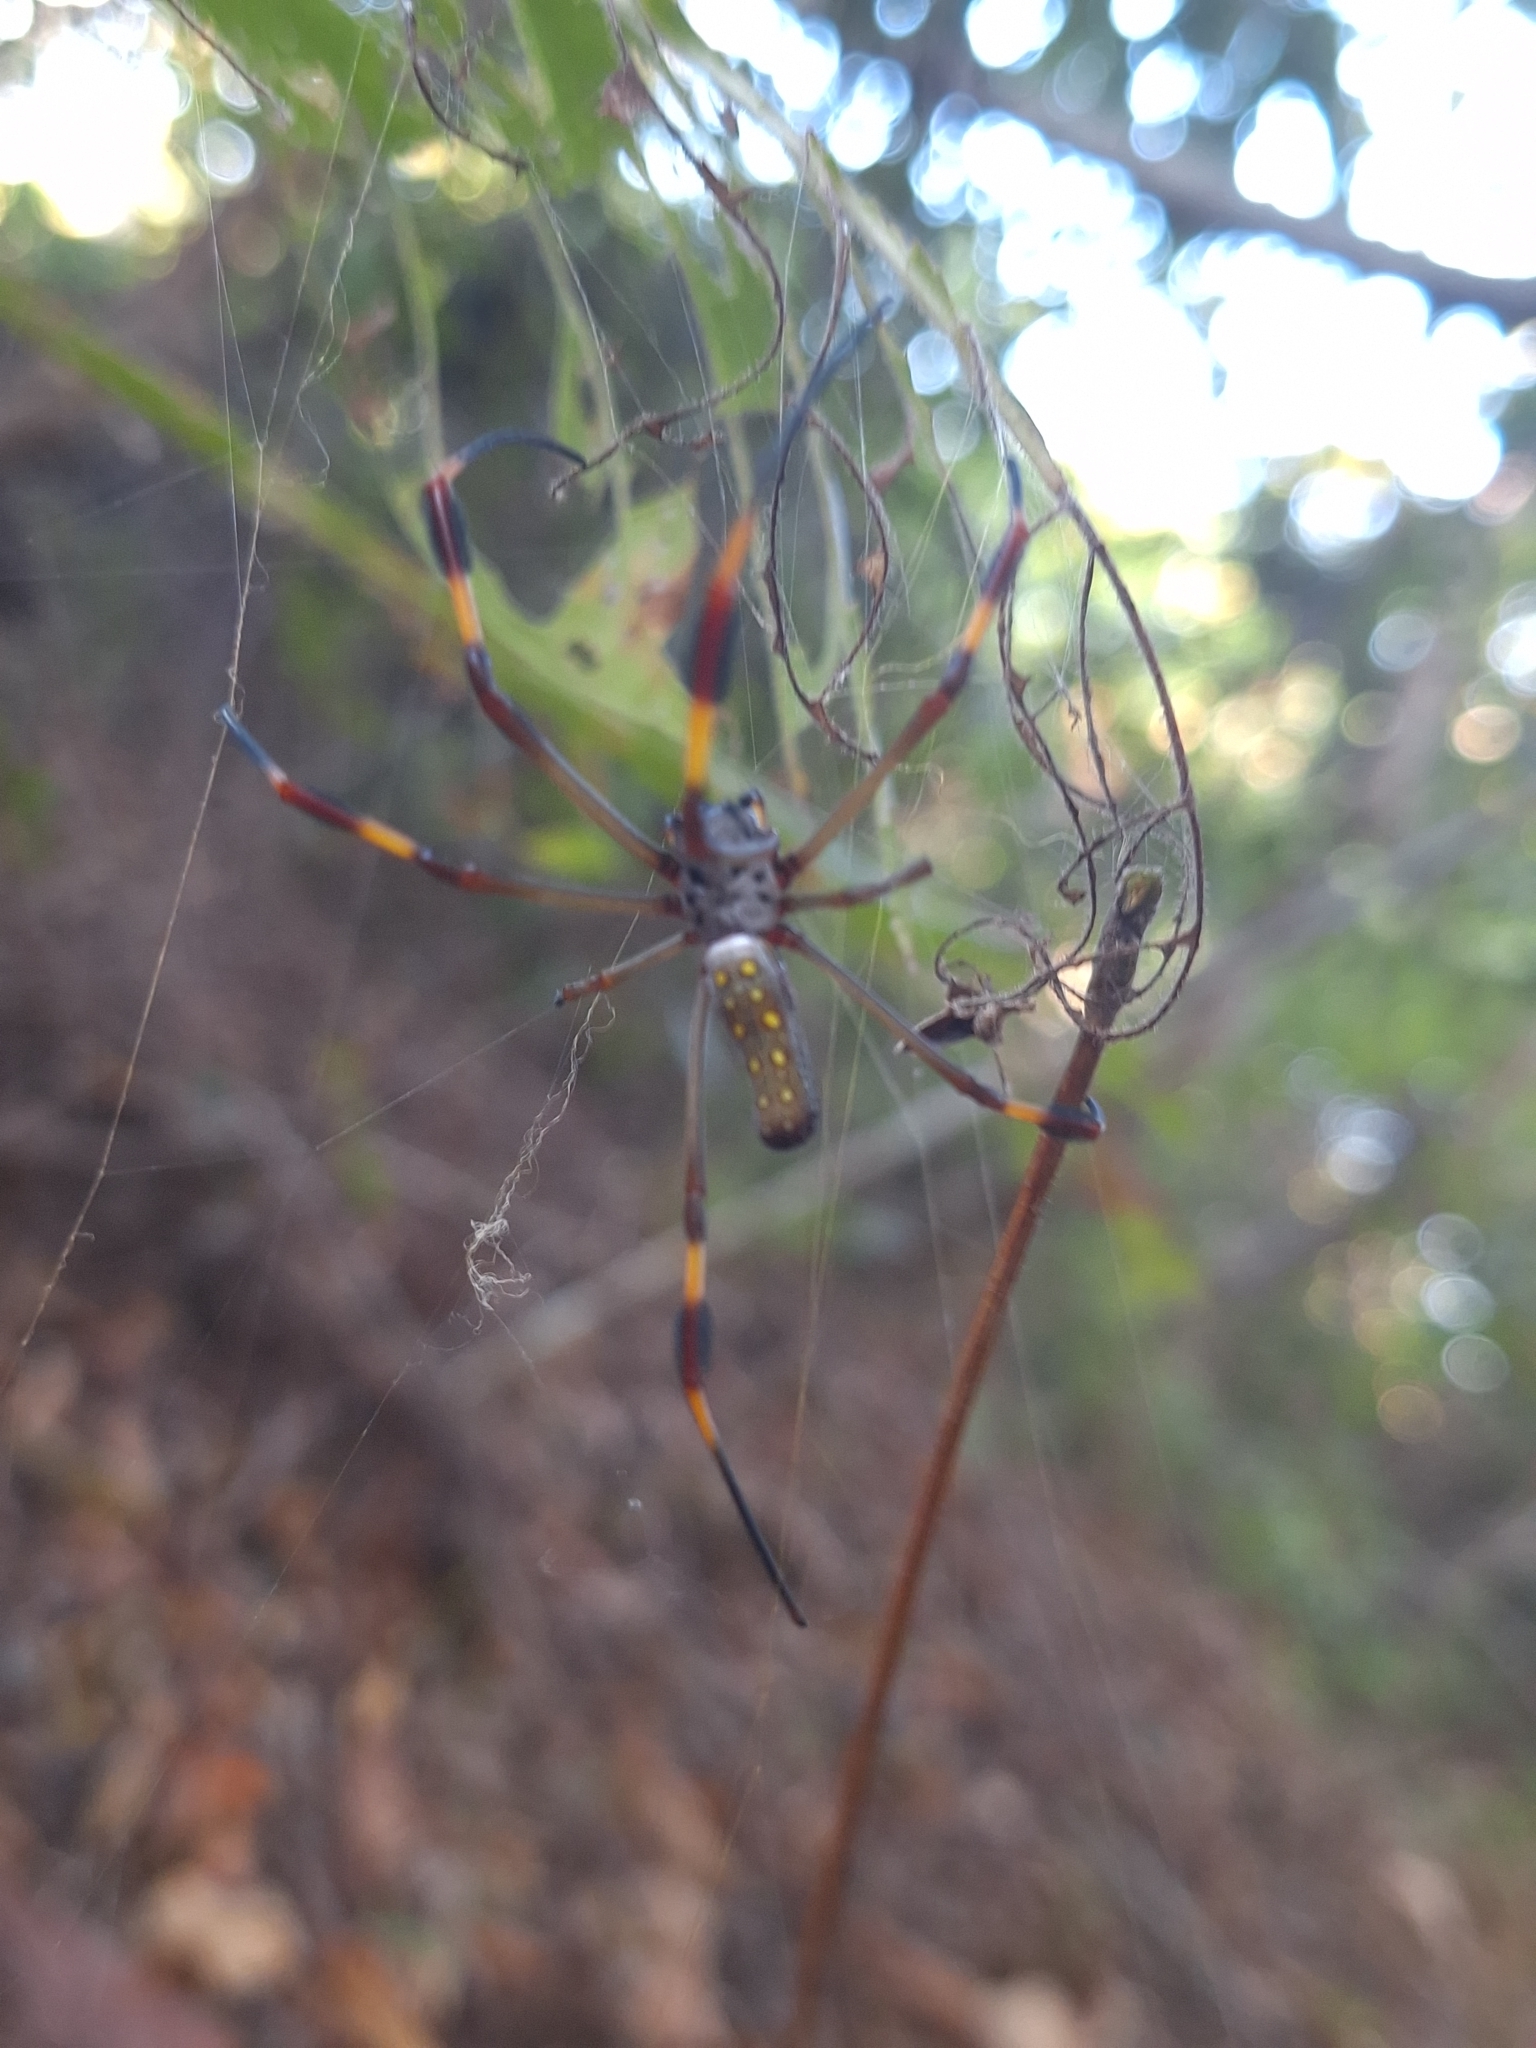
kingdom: Animalia
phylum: Arthropoda
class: Arachnida
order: Araneae
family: Araneidae
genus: Trichonephila
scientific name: Trichonephila clavipes
